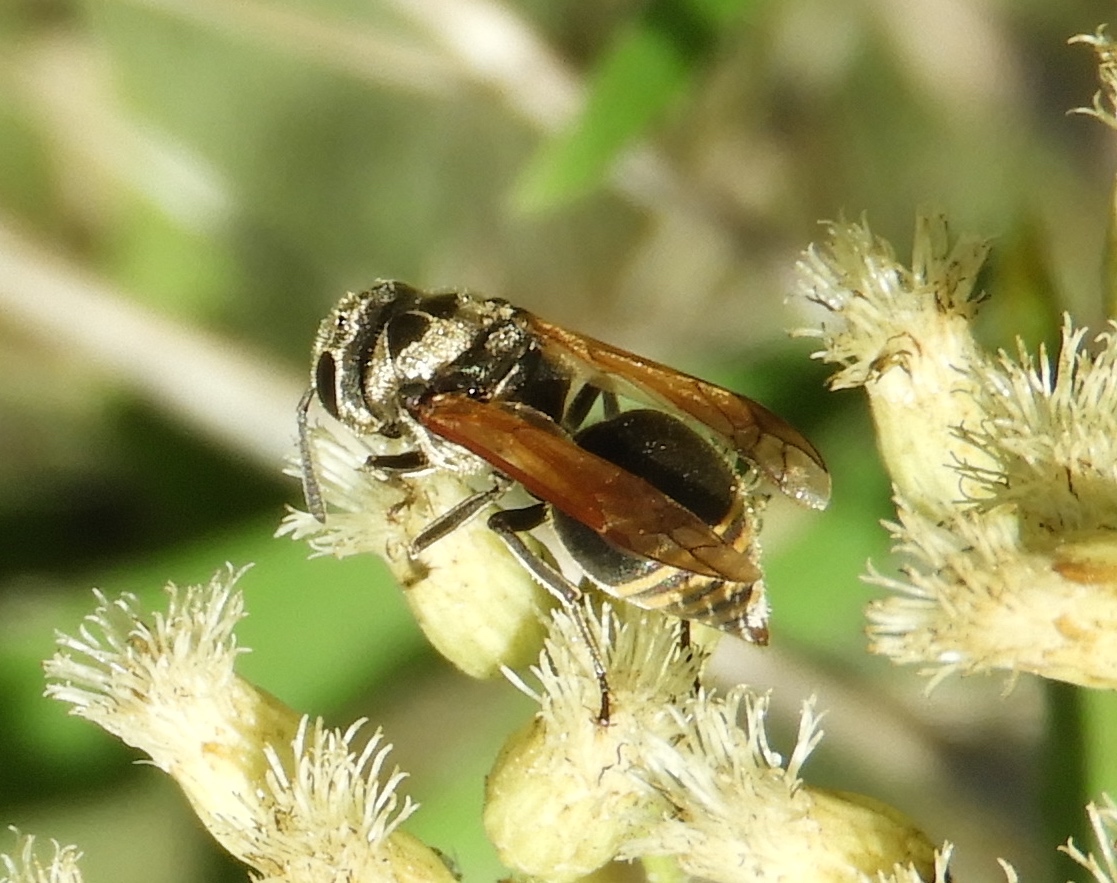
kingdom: Animalia
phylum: Arthropoda
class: Insecta
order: Hymenoptera
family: Vespidae
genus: Brachygastra
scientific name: Brachygastra mellifica
